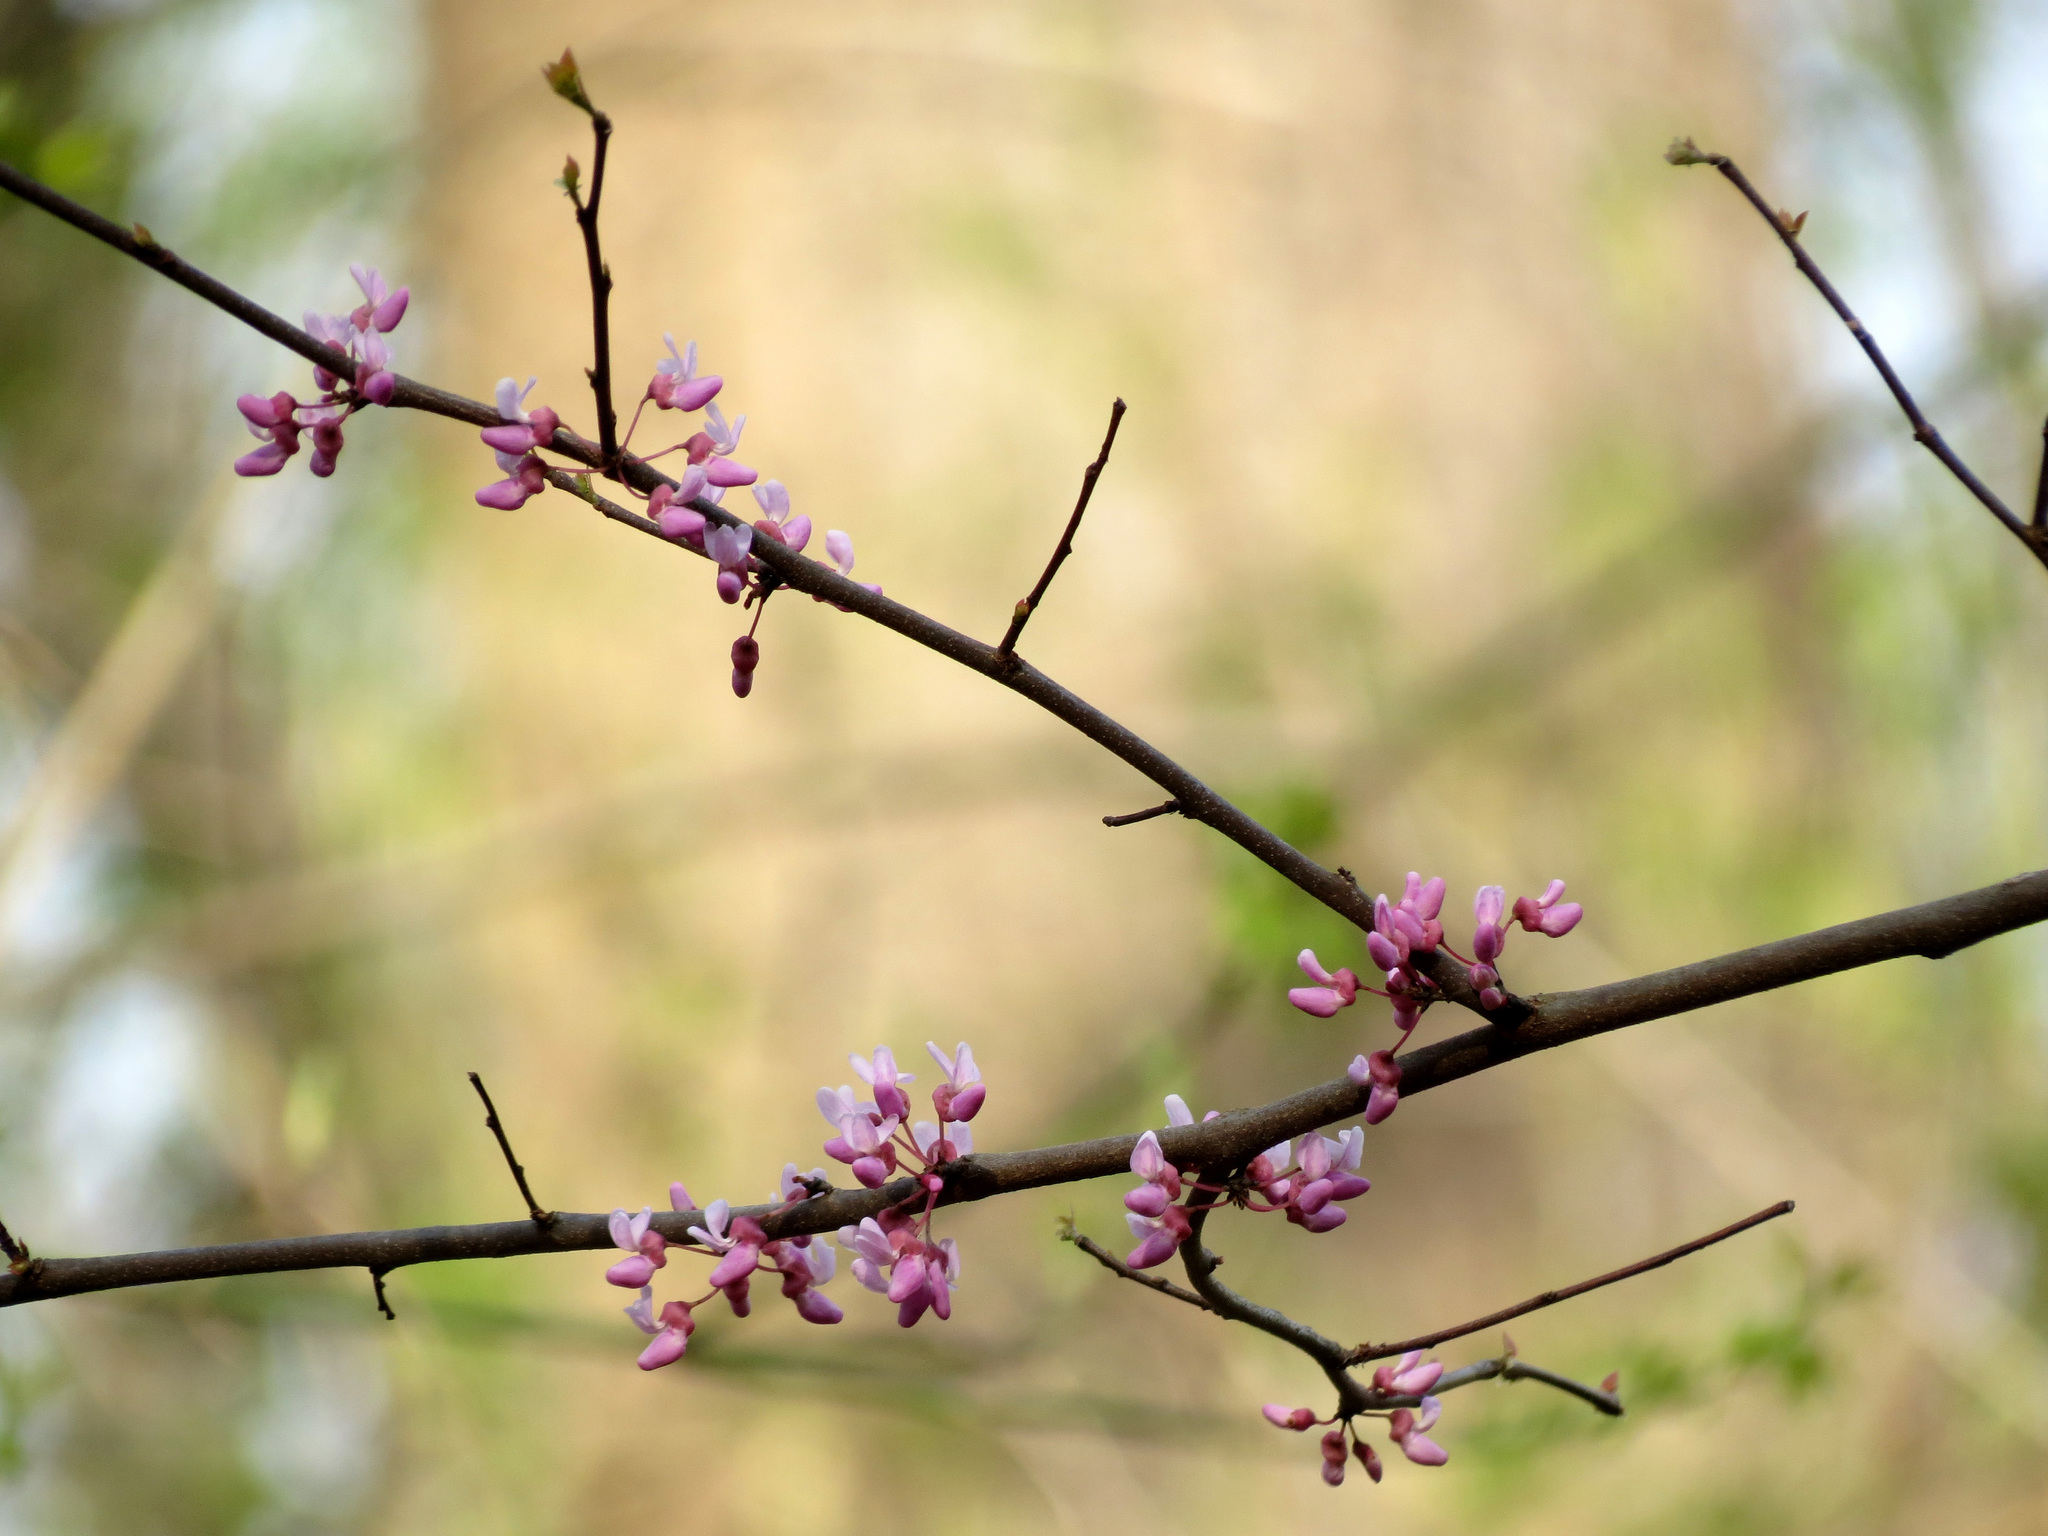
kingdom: Plantae
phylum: Tracheophyta
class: Magnoliopsida
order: Fabales
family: Fabaceae
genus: Cercis
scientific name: Cercis canadensis
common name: Eastern redbud
